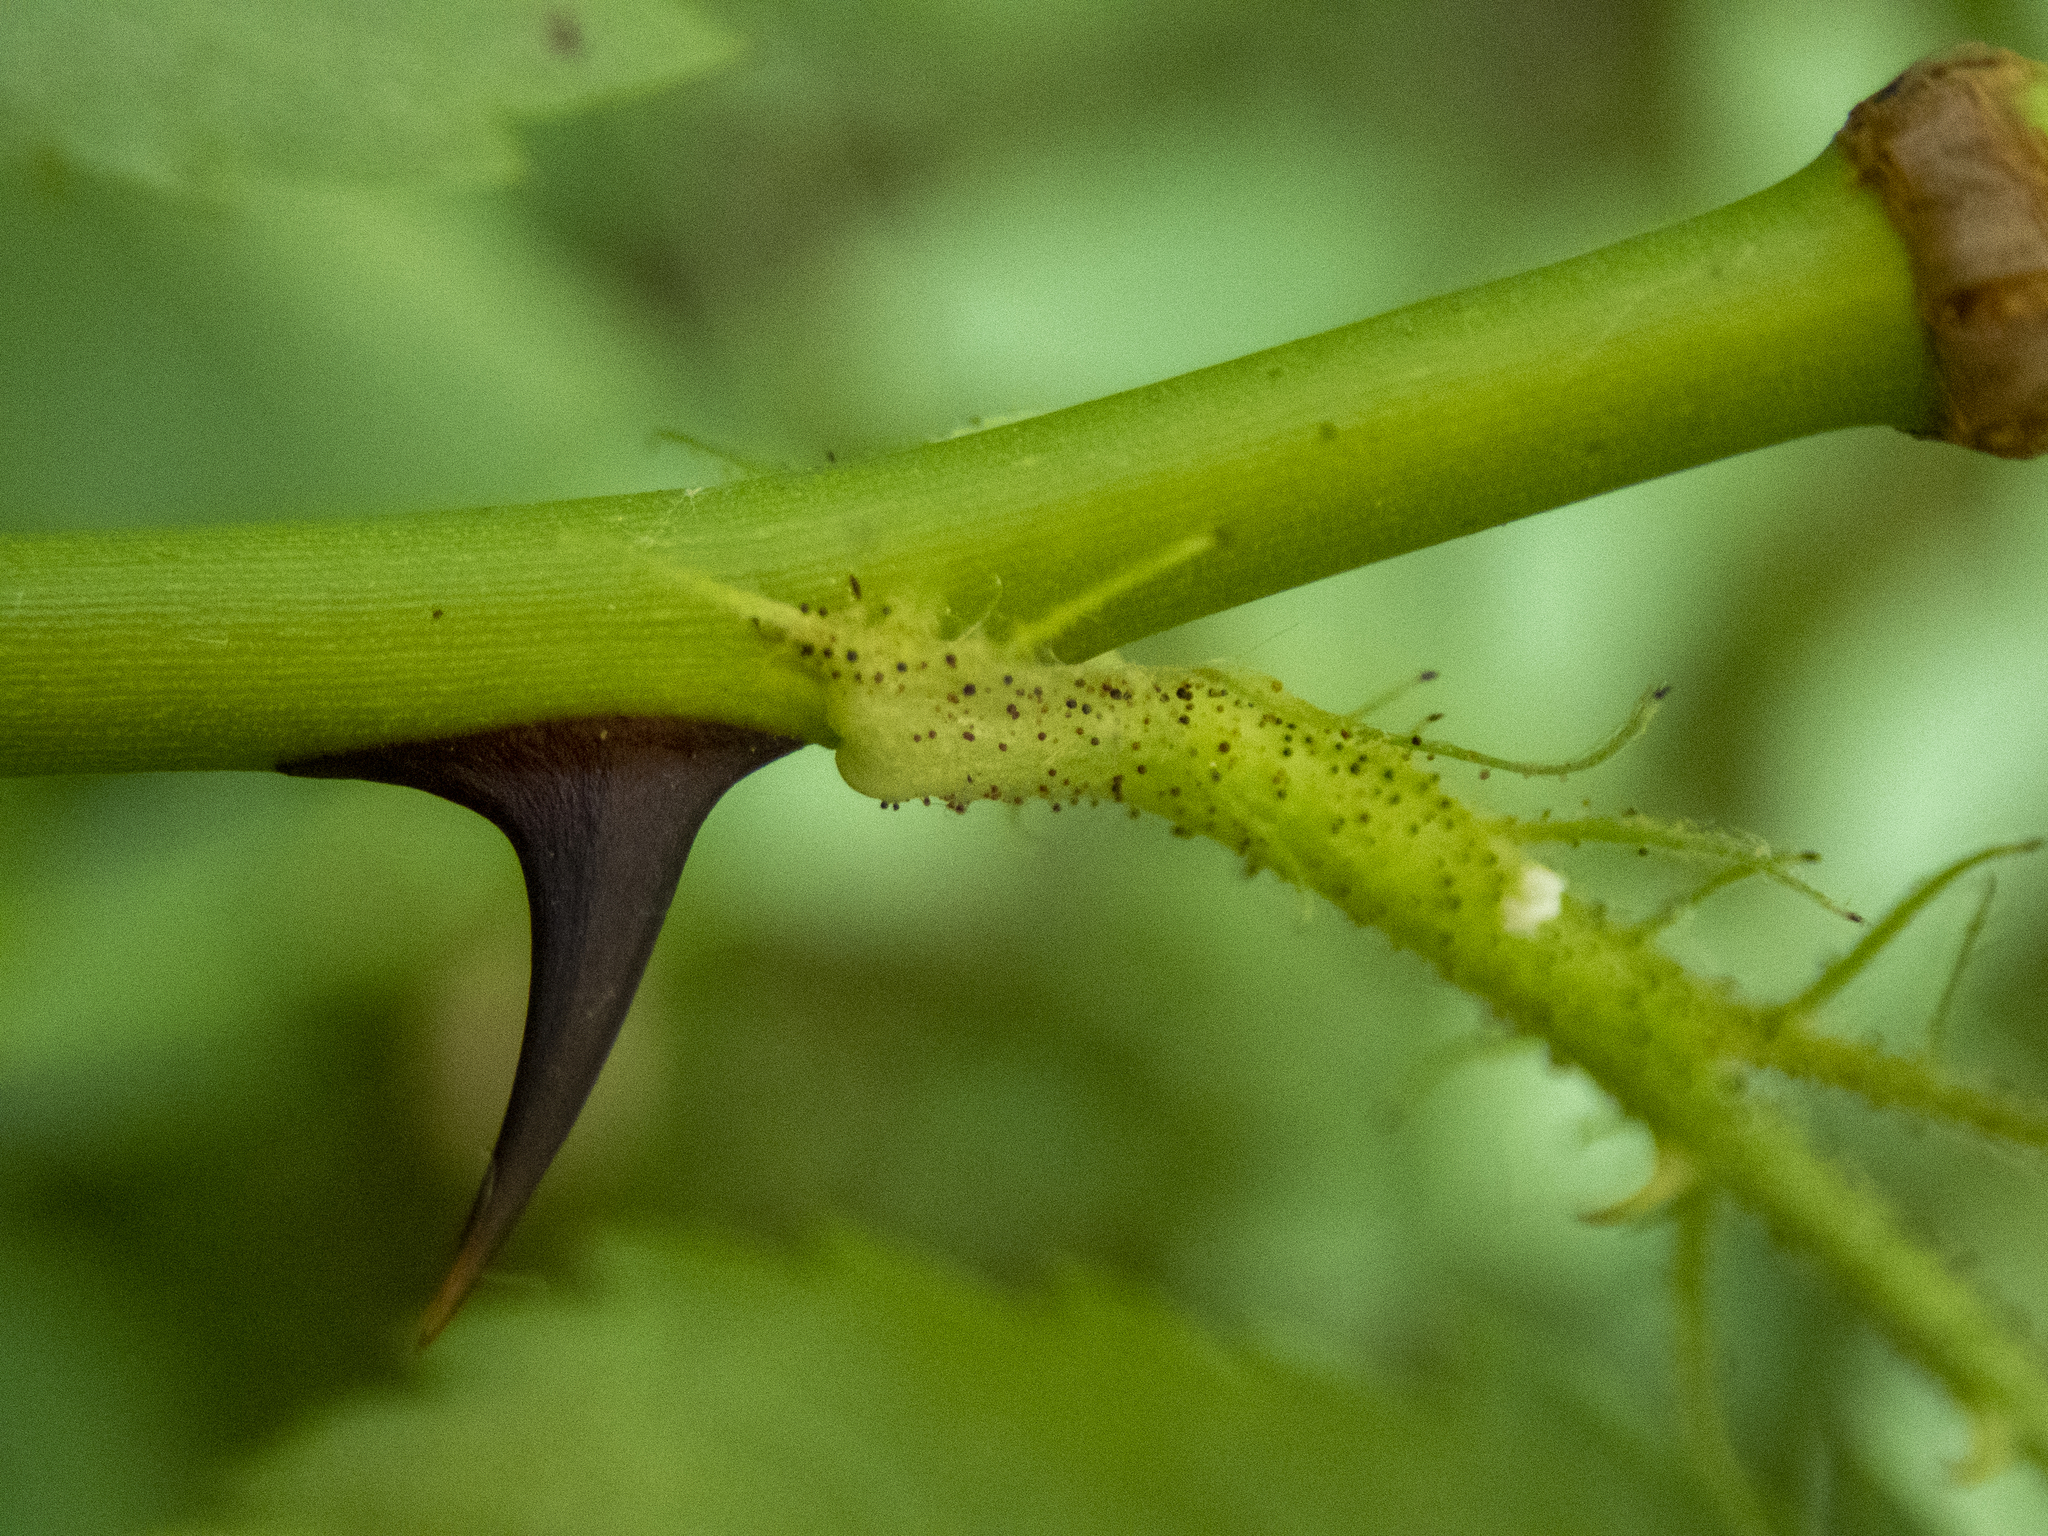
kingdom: Plantae
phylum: Tracheophyta
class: Magnoliopsida
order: Rosales
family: Rosaceae
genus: Rosa
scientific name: Rosa multiflora
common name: Multiflora rose
